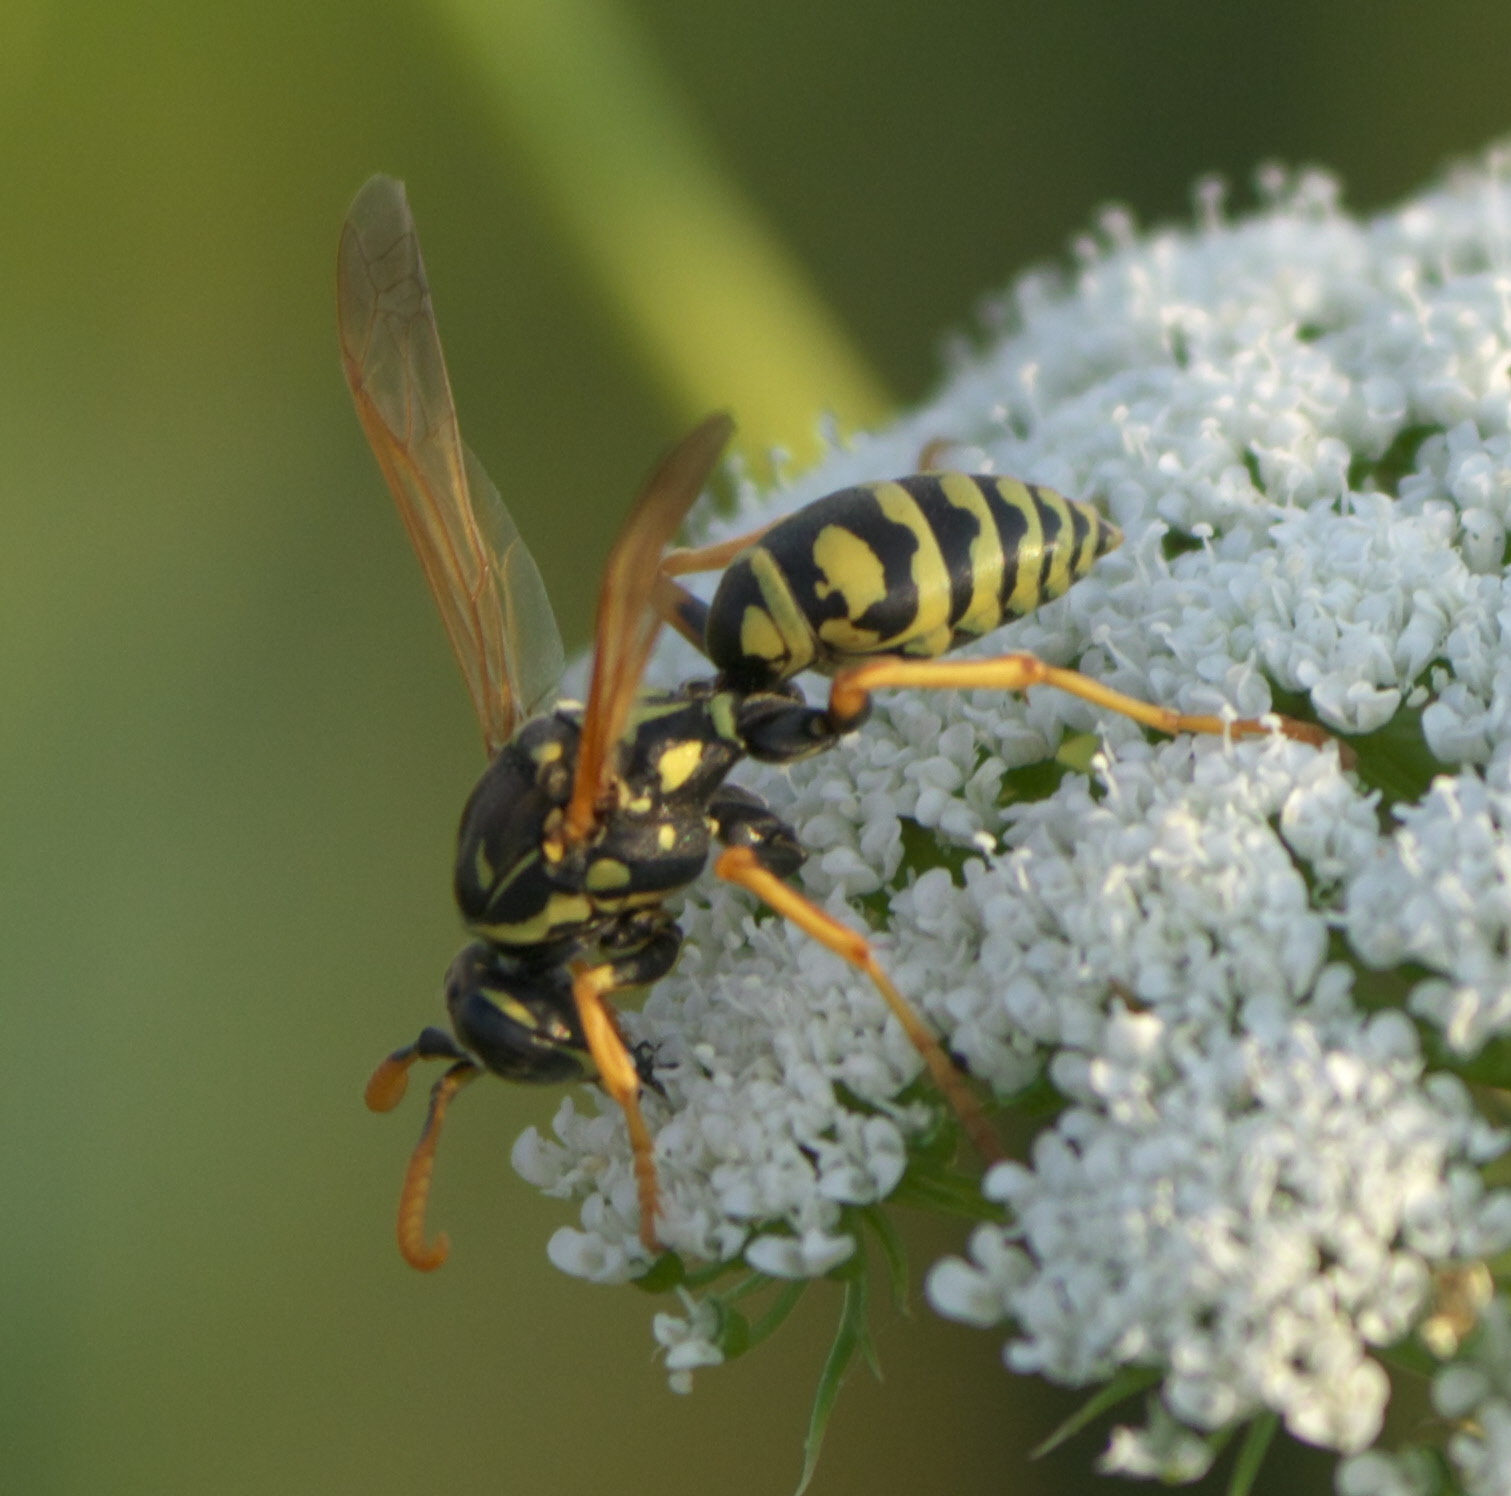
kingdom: Animalia
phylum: Arthropoda
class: Insecta
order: Hymenoptera
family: Eumenidae
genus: Polistes
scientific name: Polistes dominula
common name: Paper wasp
